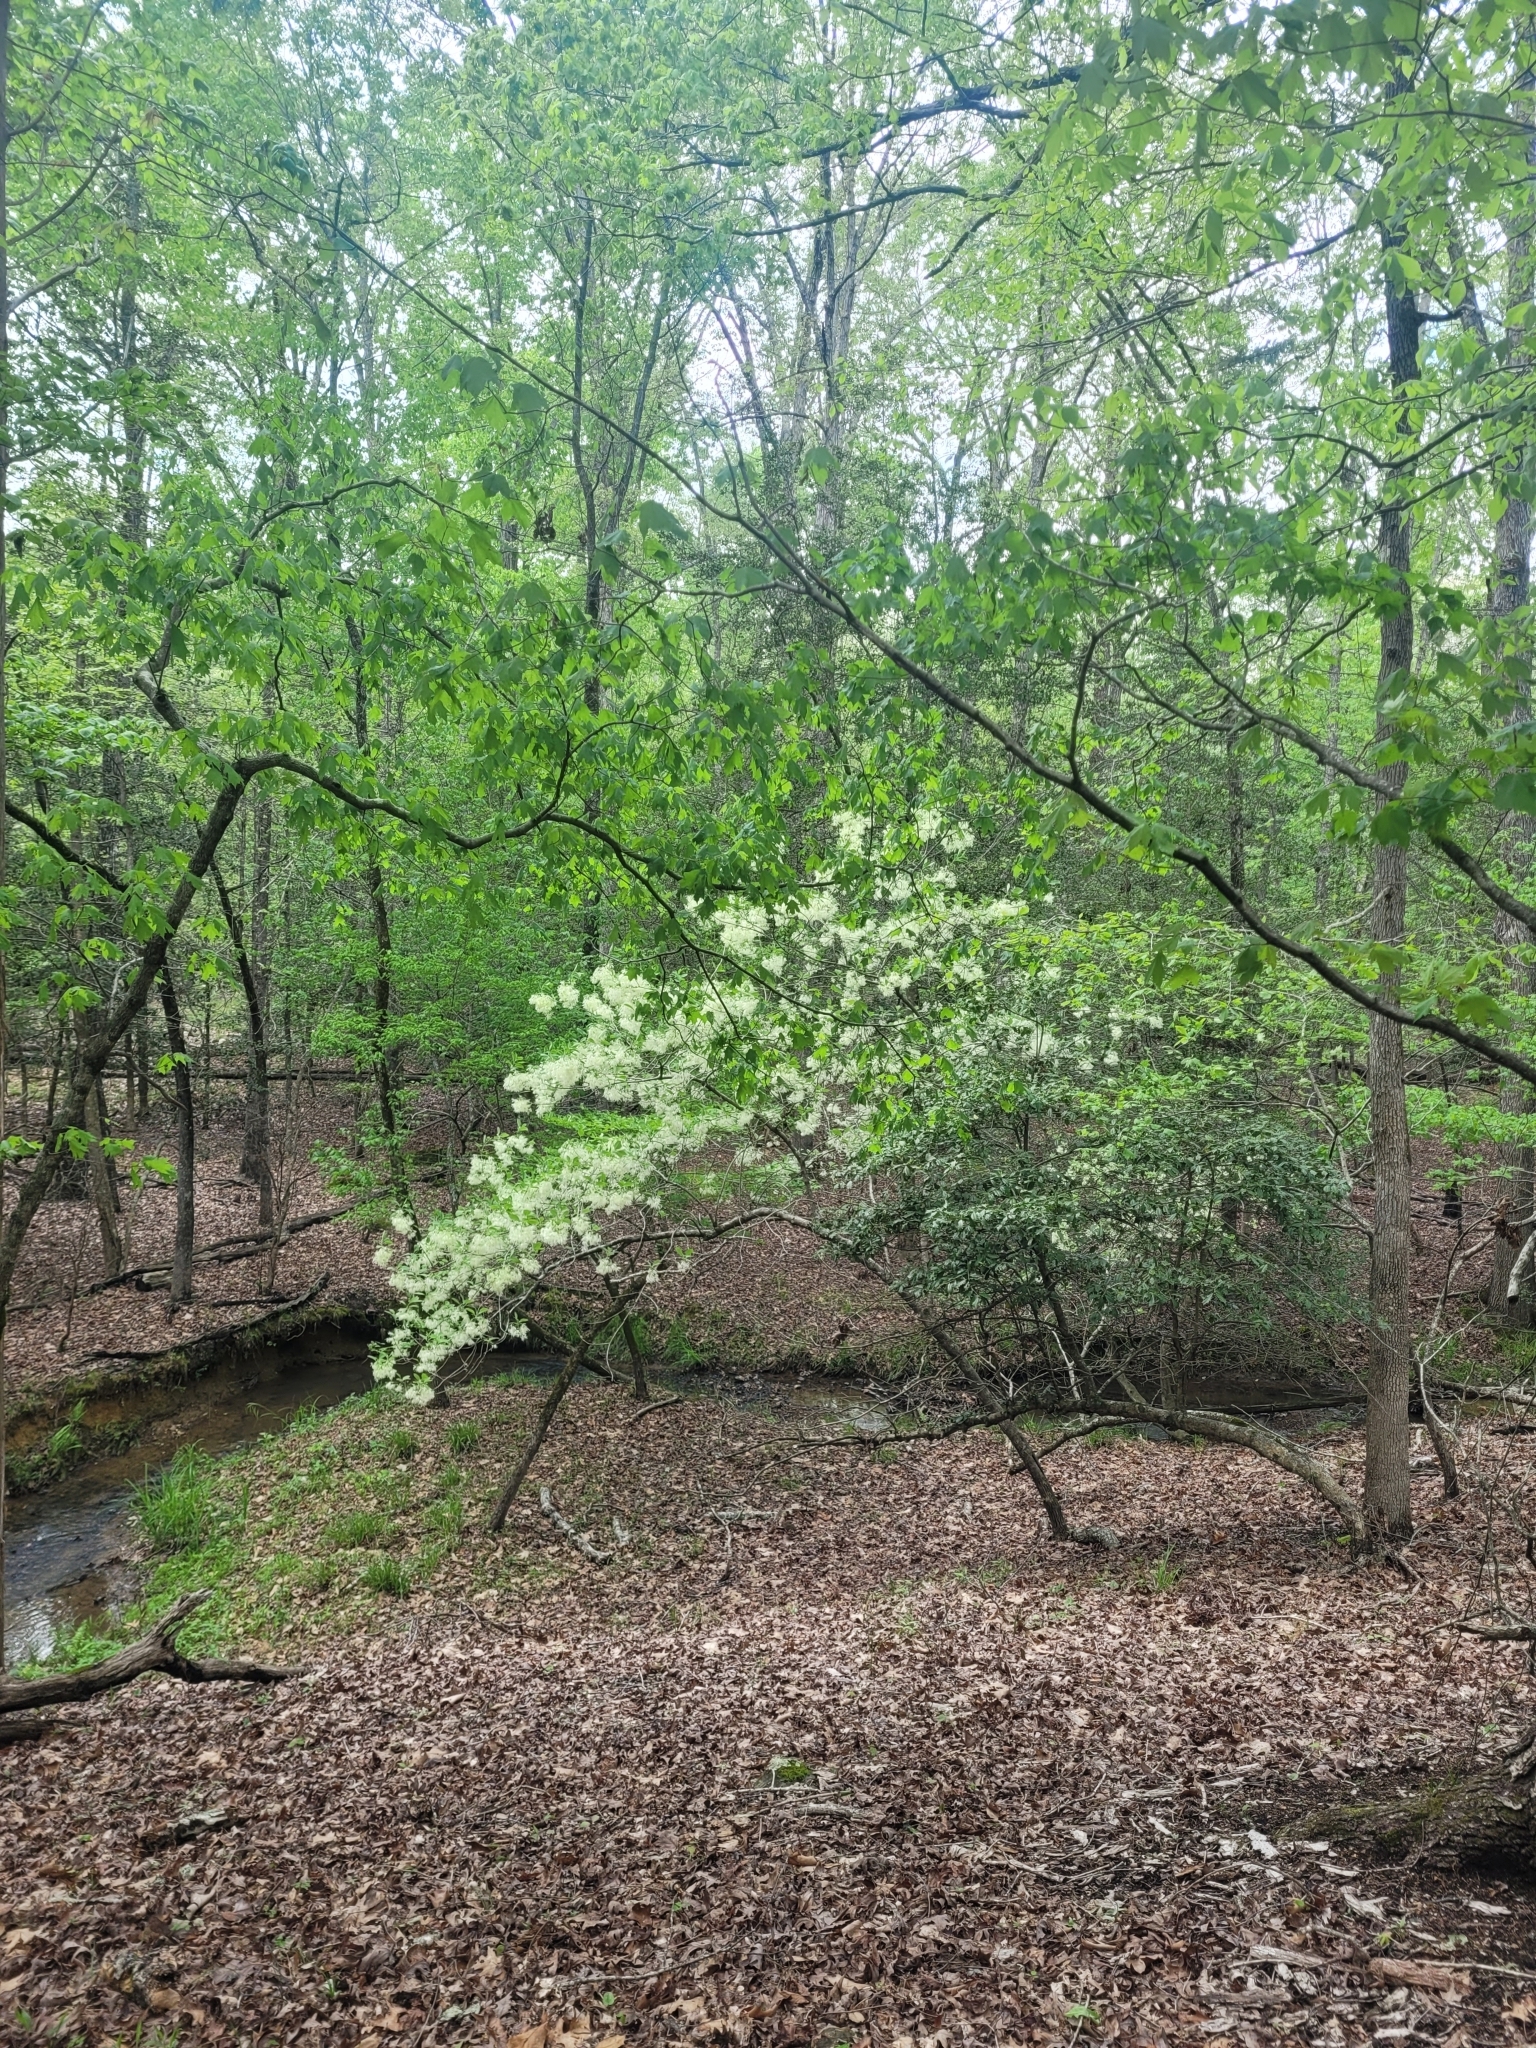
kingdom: Plantae
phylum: Tracheophyta
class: Magnoliopsida
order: Lamiales
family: Oleaceae
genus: Chionanthus
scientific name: Chionanthus virginicus
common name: American fringetree
